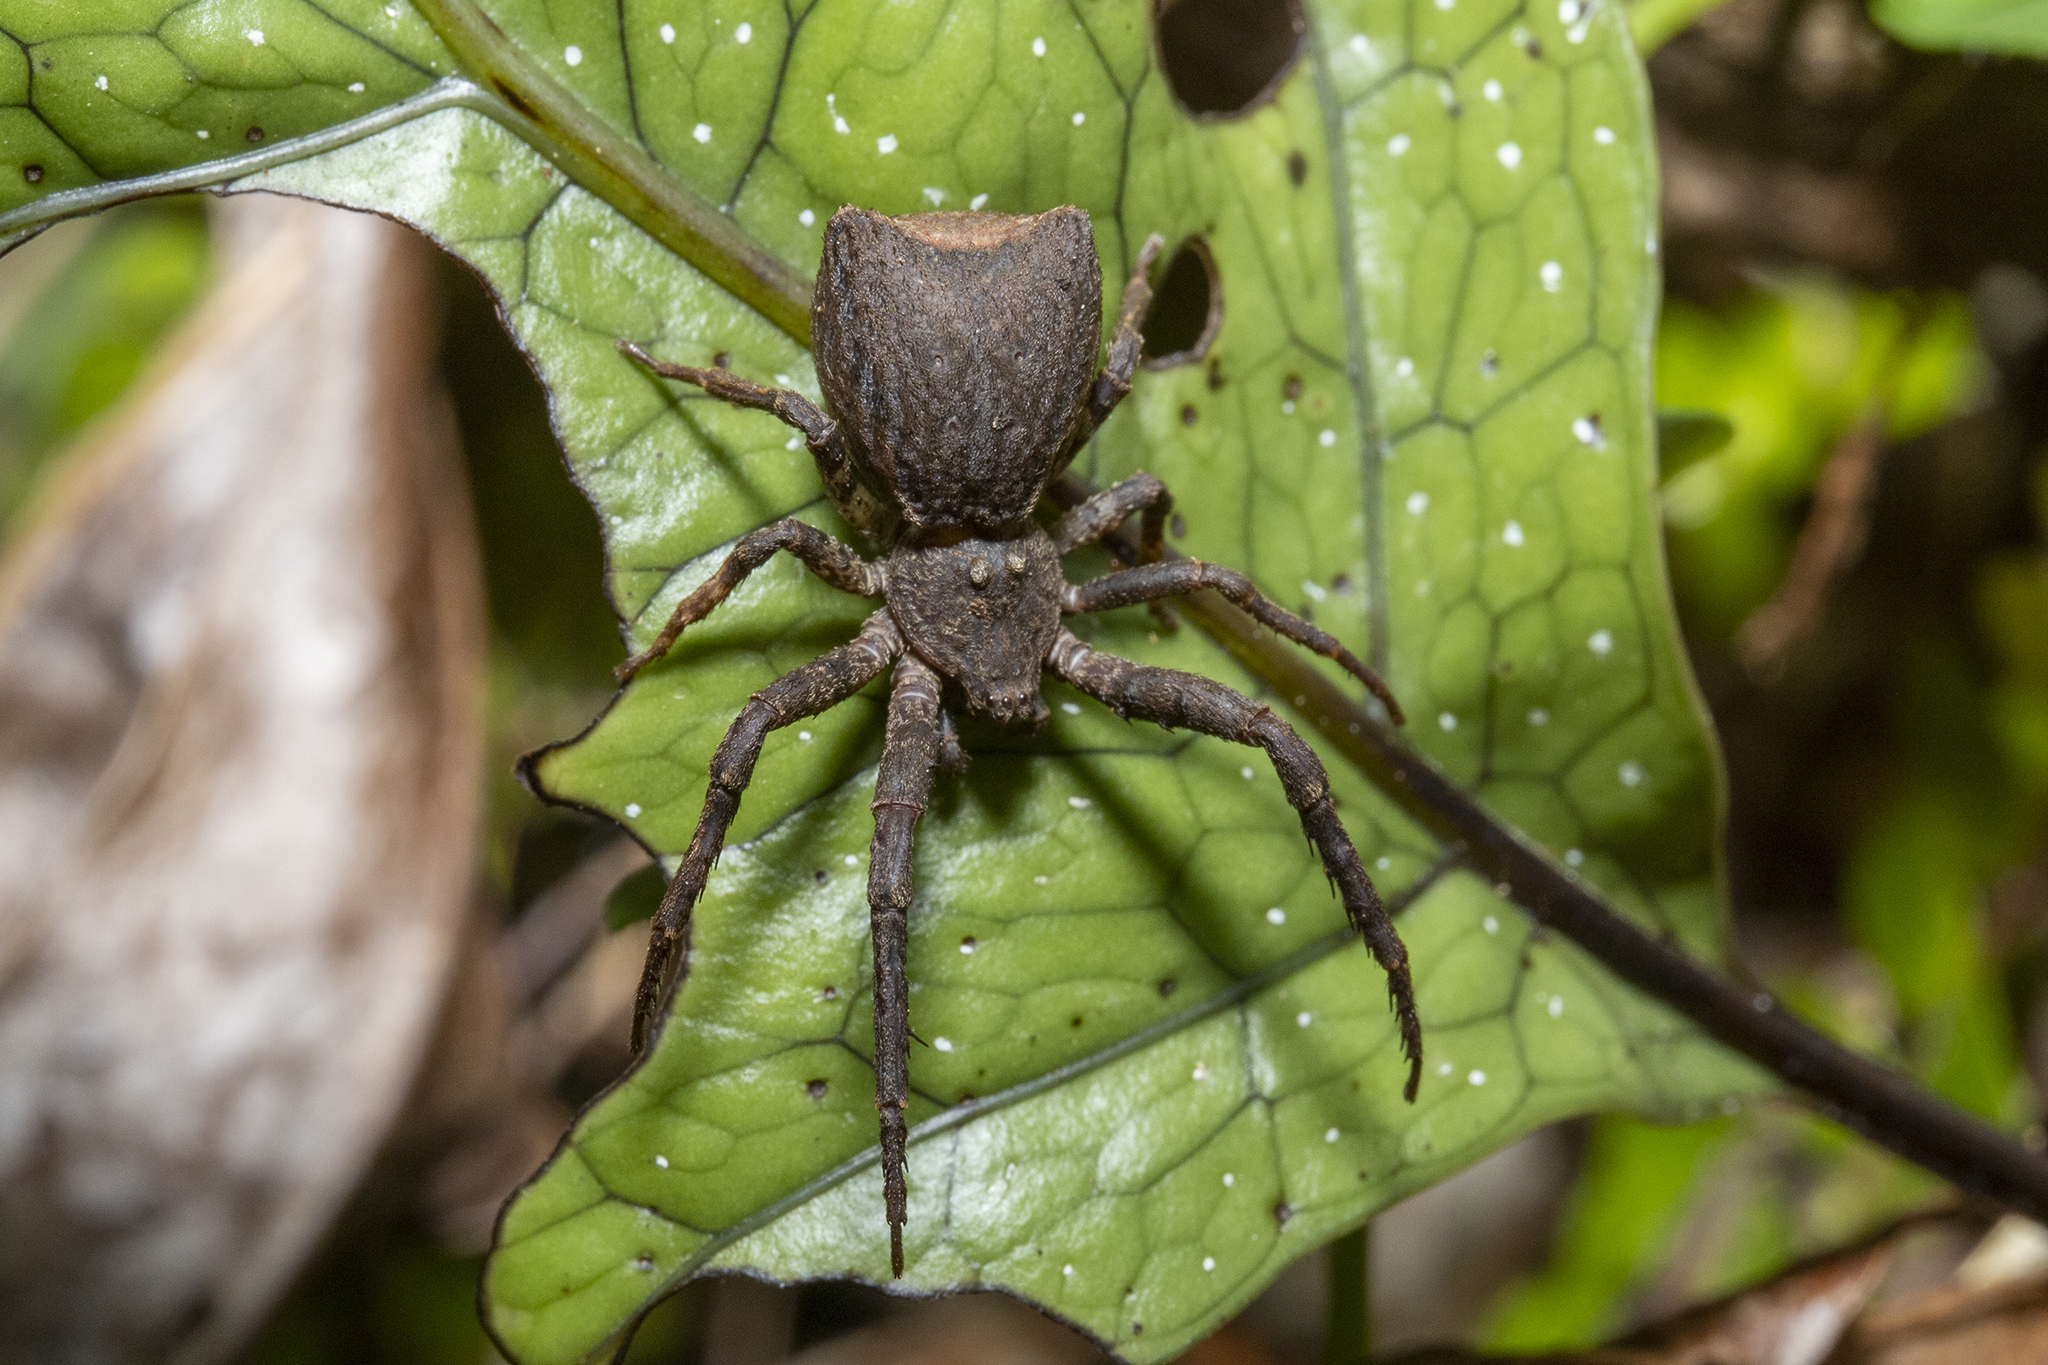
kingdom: Animalia
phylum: Arthropoda
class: Arachnida
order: Araneae
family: Thomisidae
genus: Sidymella
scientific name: Sidymella angularis
